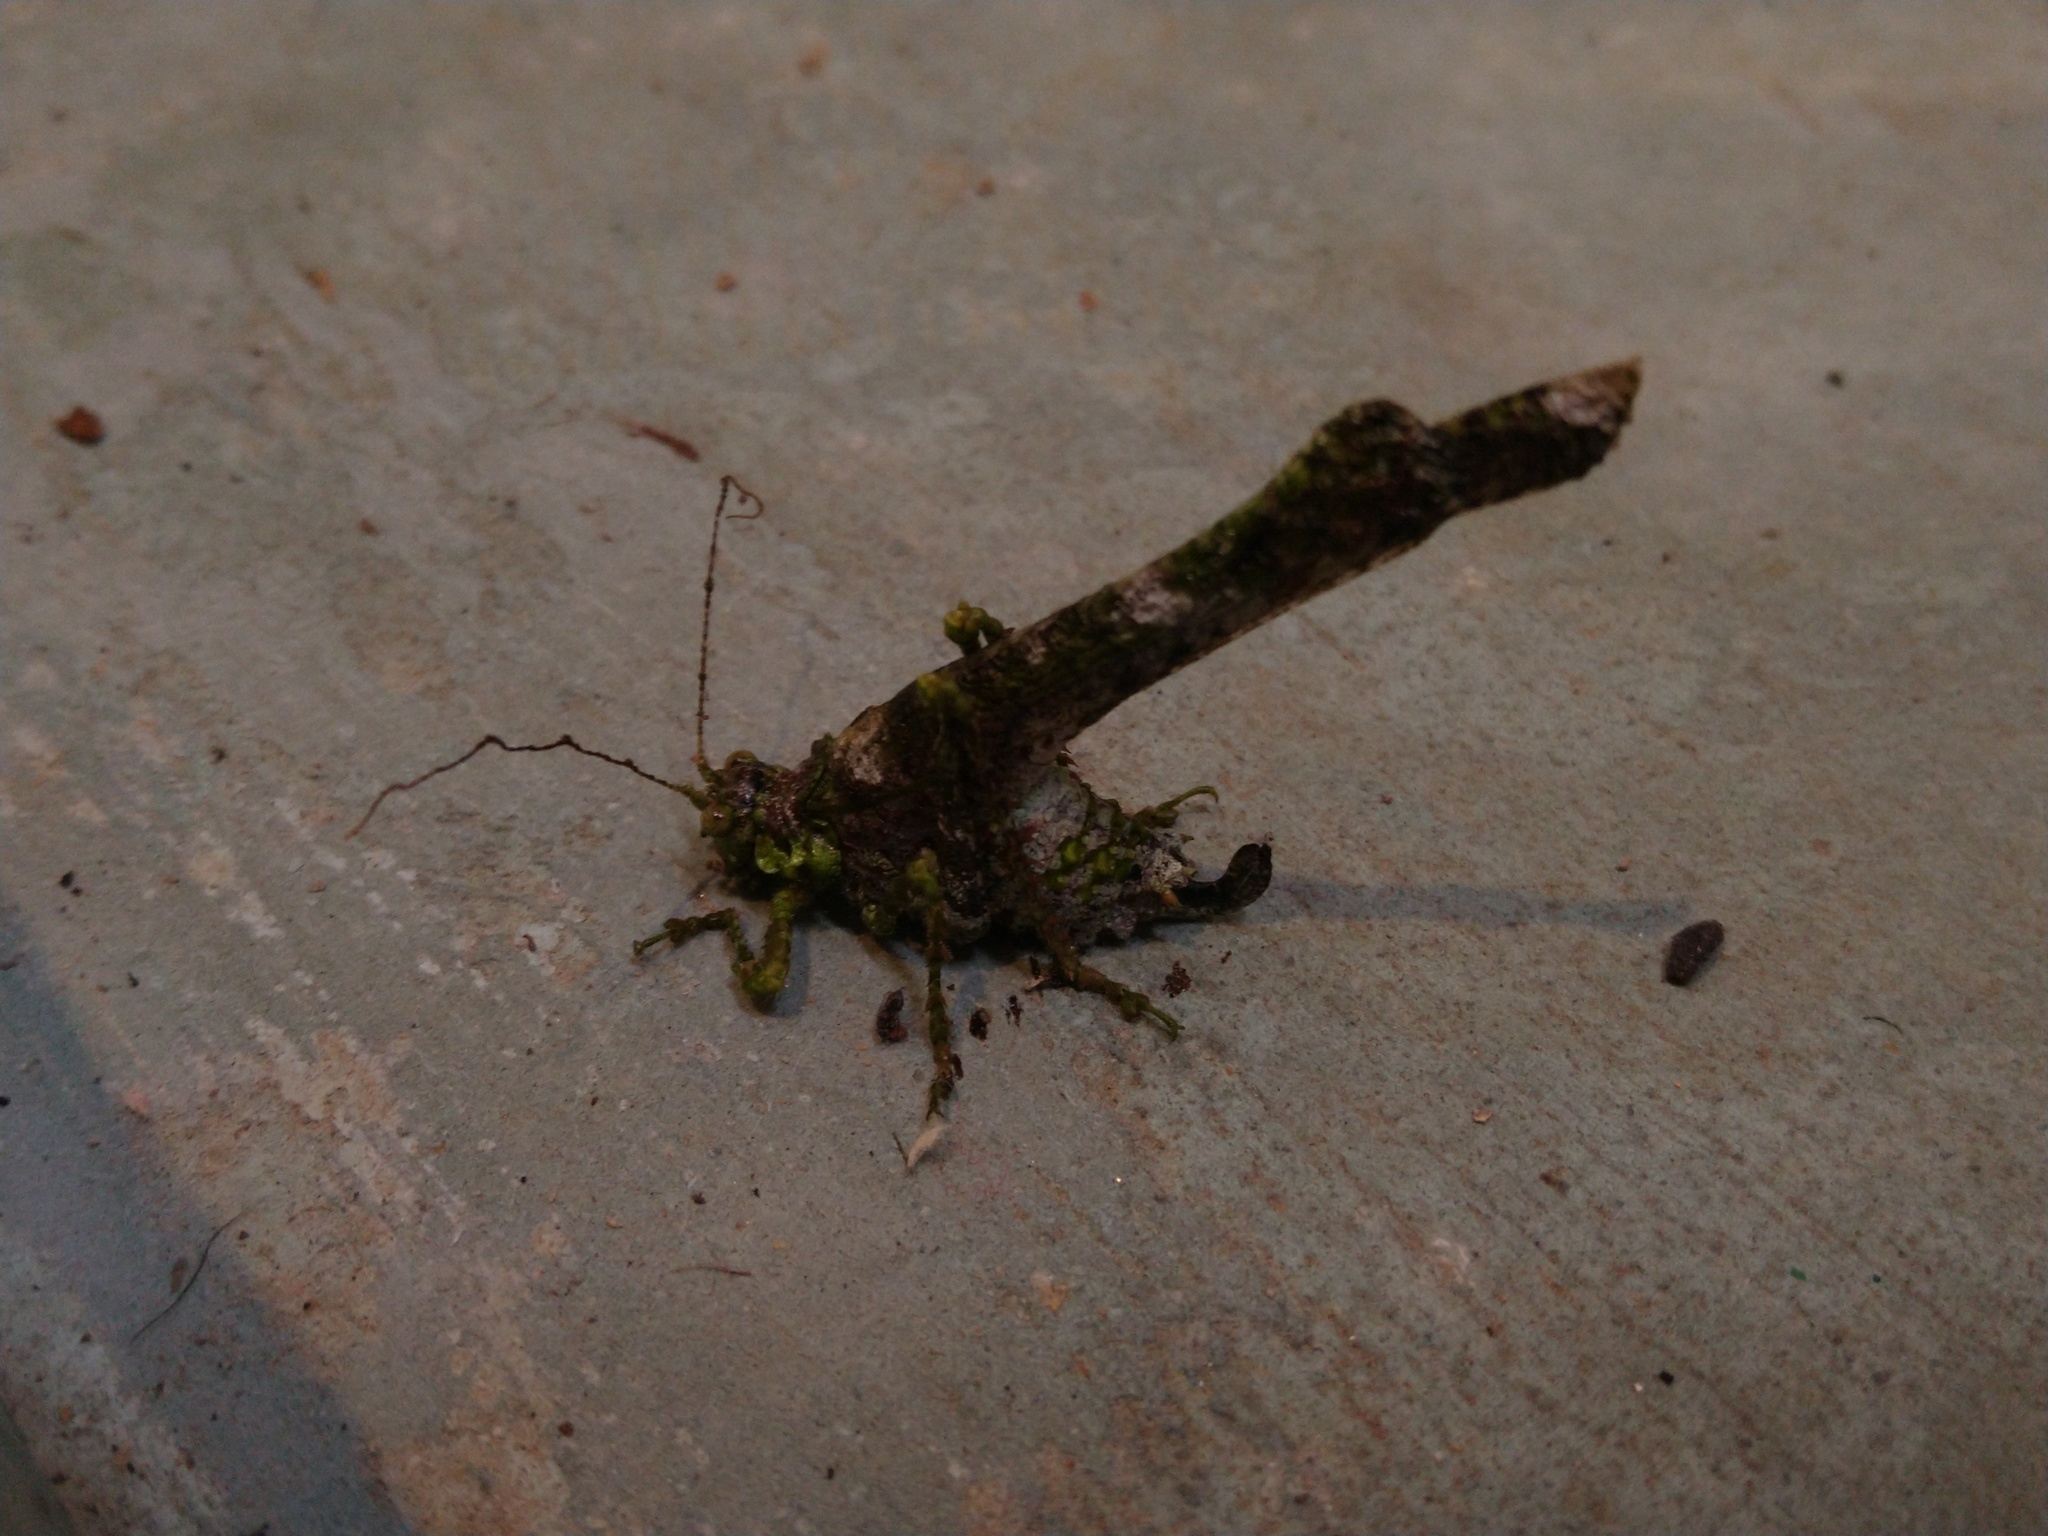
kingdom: Animalia
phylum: Arthropoda
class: Insecta
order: Orthoptera
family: Tettigoniidae
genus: Anaphidna
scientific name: Anaphidna verrucosa
